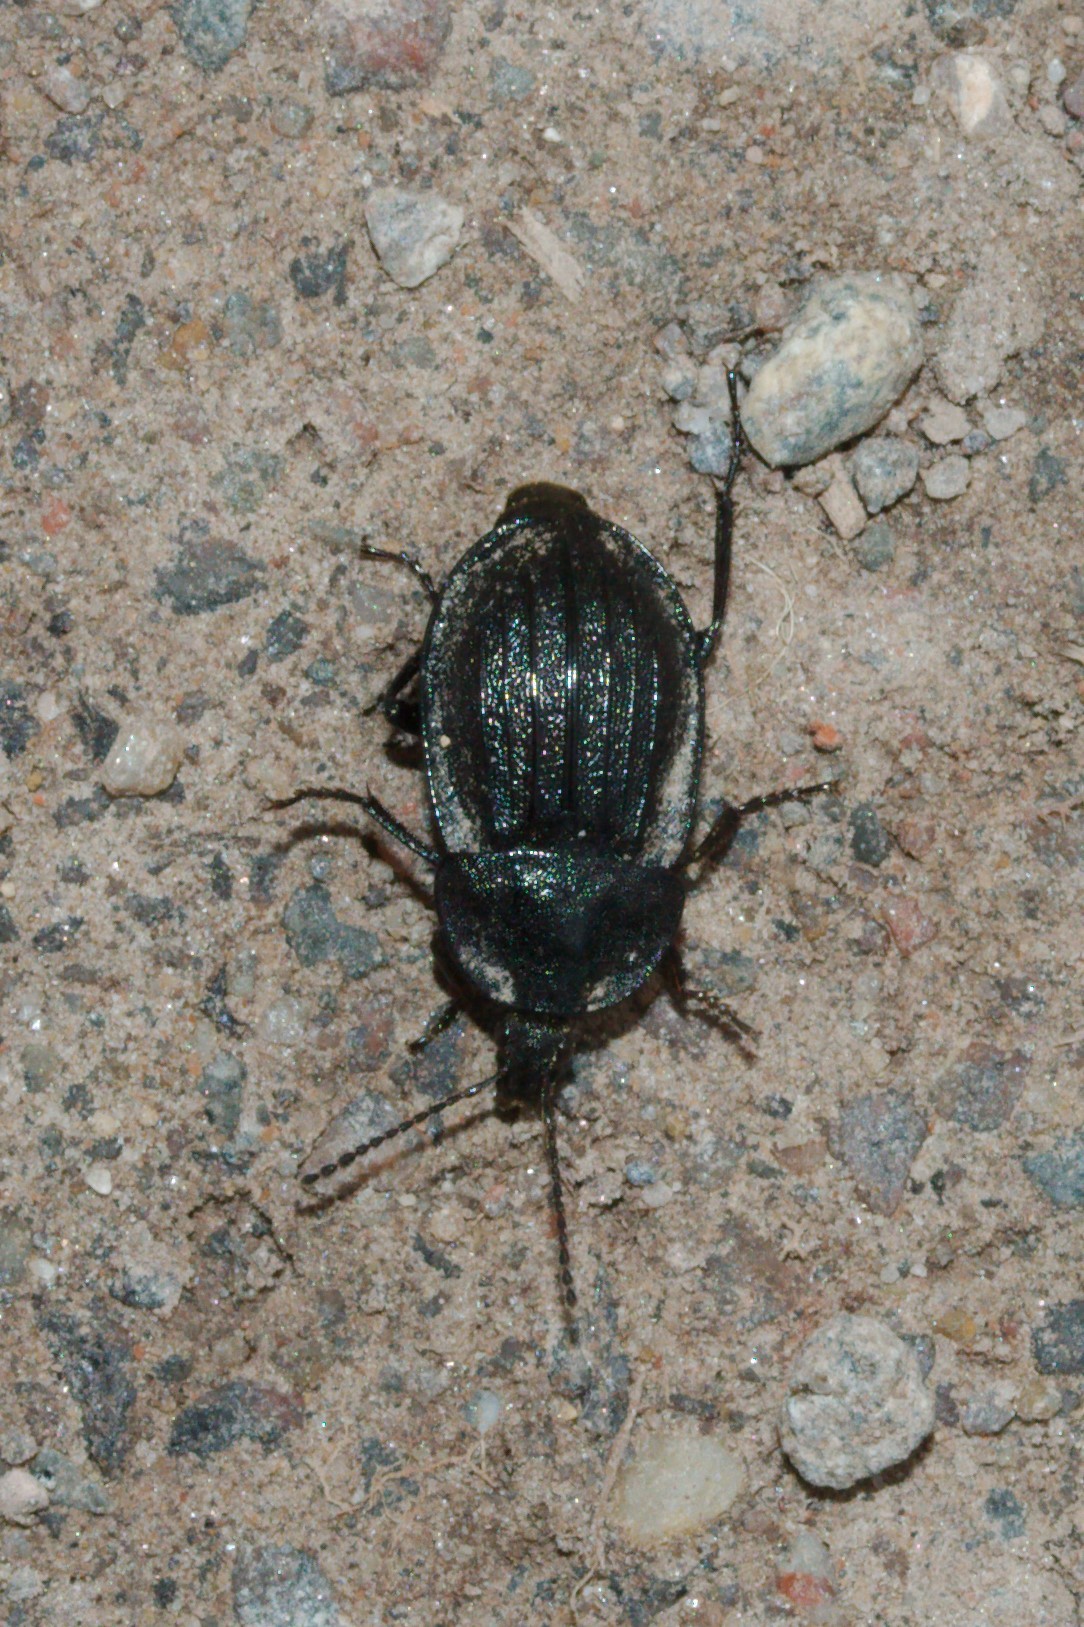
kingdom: Animalia
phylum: Arthropoda
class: Insecta
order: Coleoptera
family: Staphylinidae
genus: Silpha
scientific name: Silpha atrata
